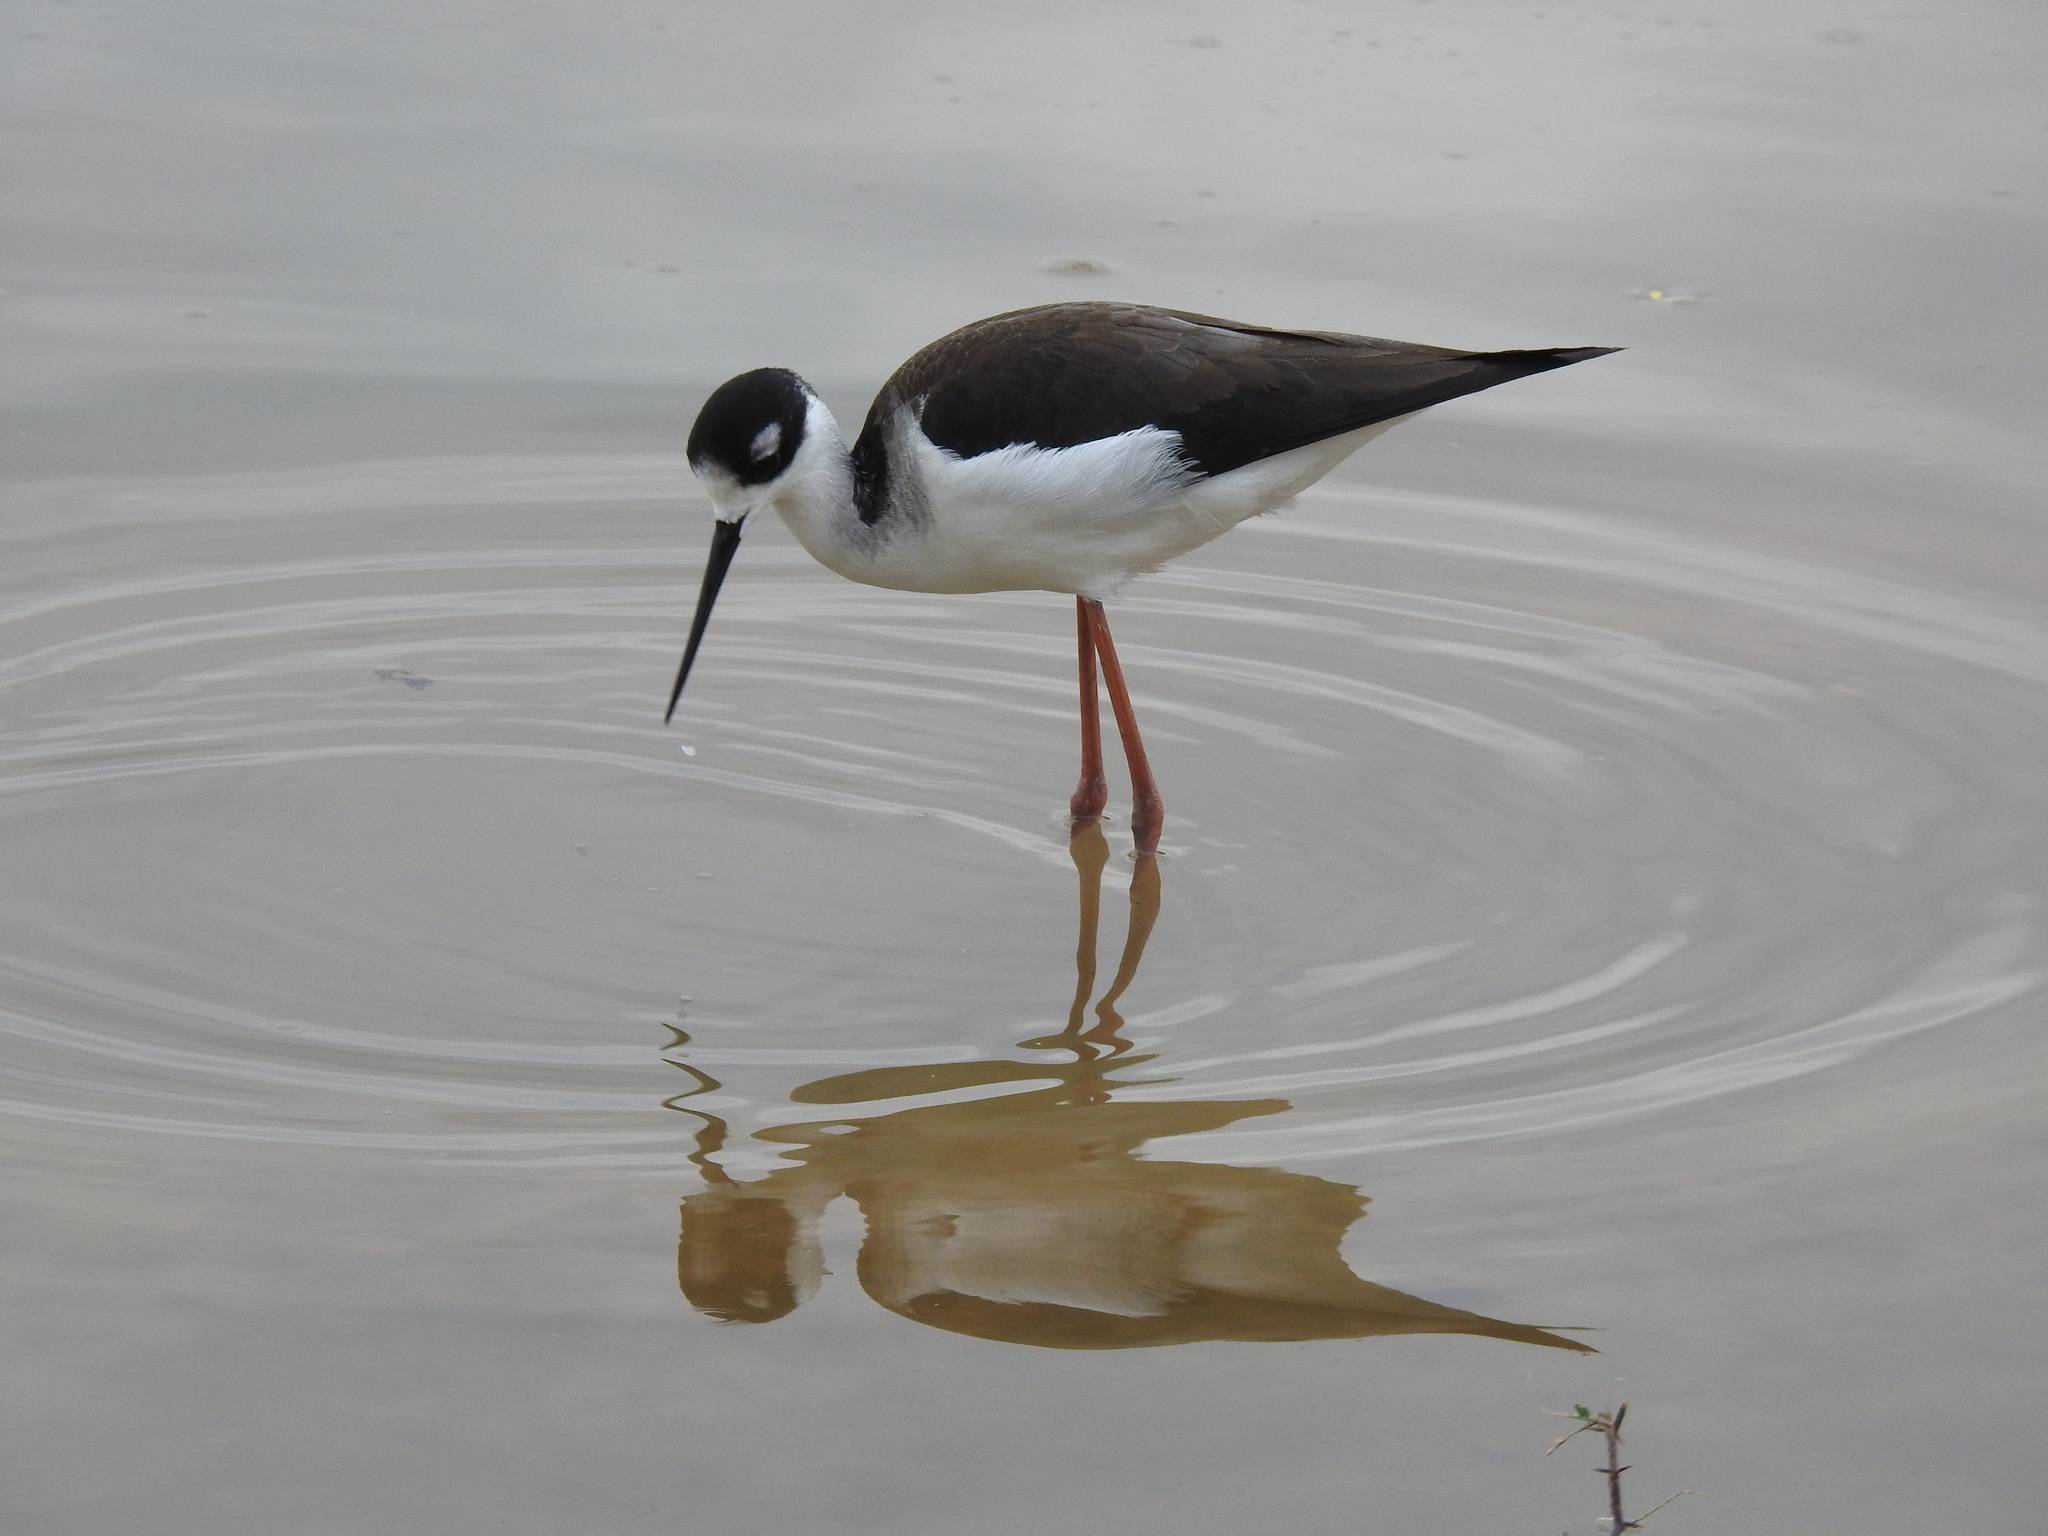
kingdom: Animalia
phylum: Chordata
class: Aves
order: Charadriiformes
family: Recurvirostridae
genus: Himantopus
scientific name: Himantopus mexicanus
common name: Black-necked stilt
